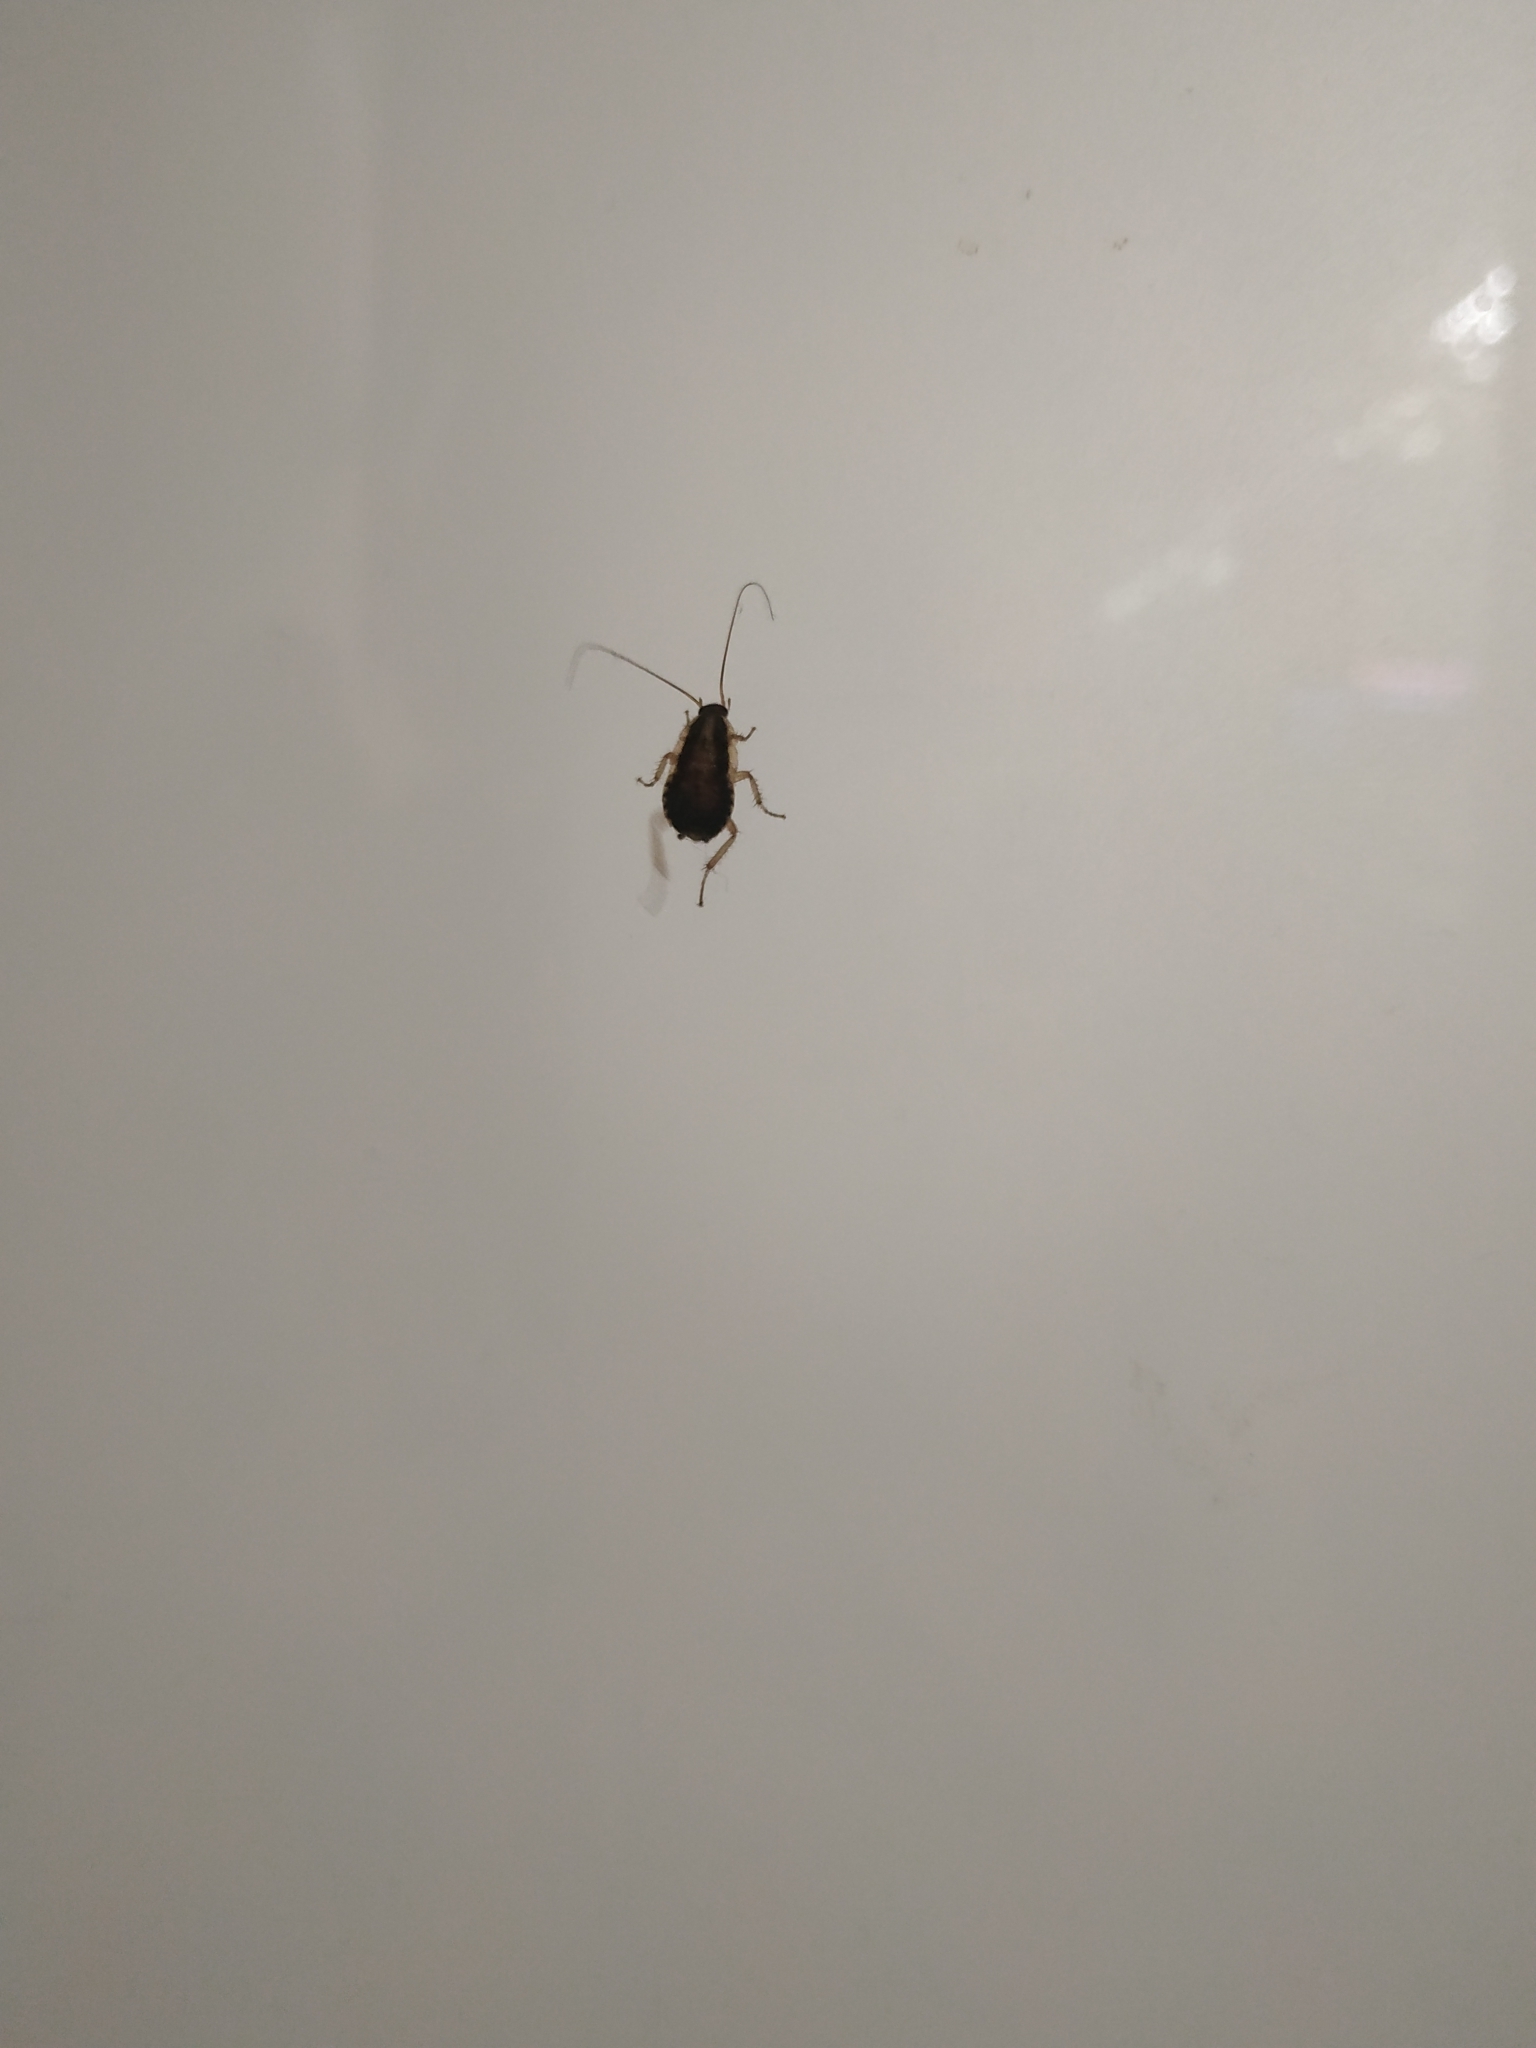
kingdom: Animalia
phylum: Arthropoda
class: Insecta
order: Blattodea
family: Ectobiidae
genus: Blattella
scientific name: Blattella germanica
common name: German cockroach
